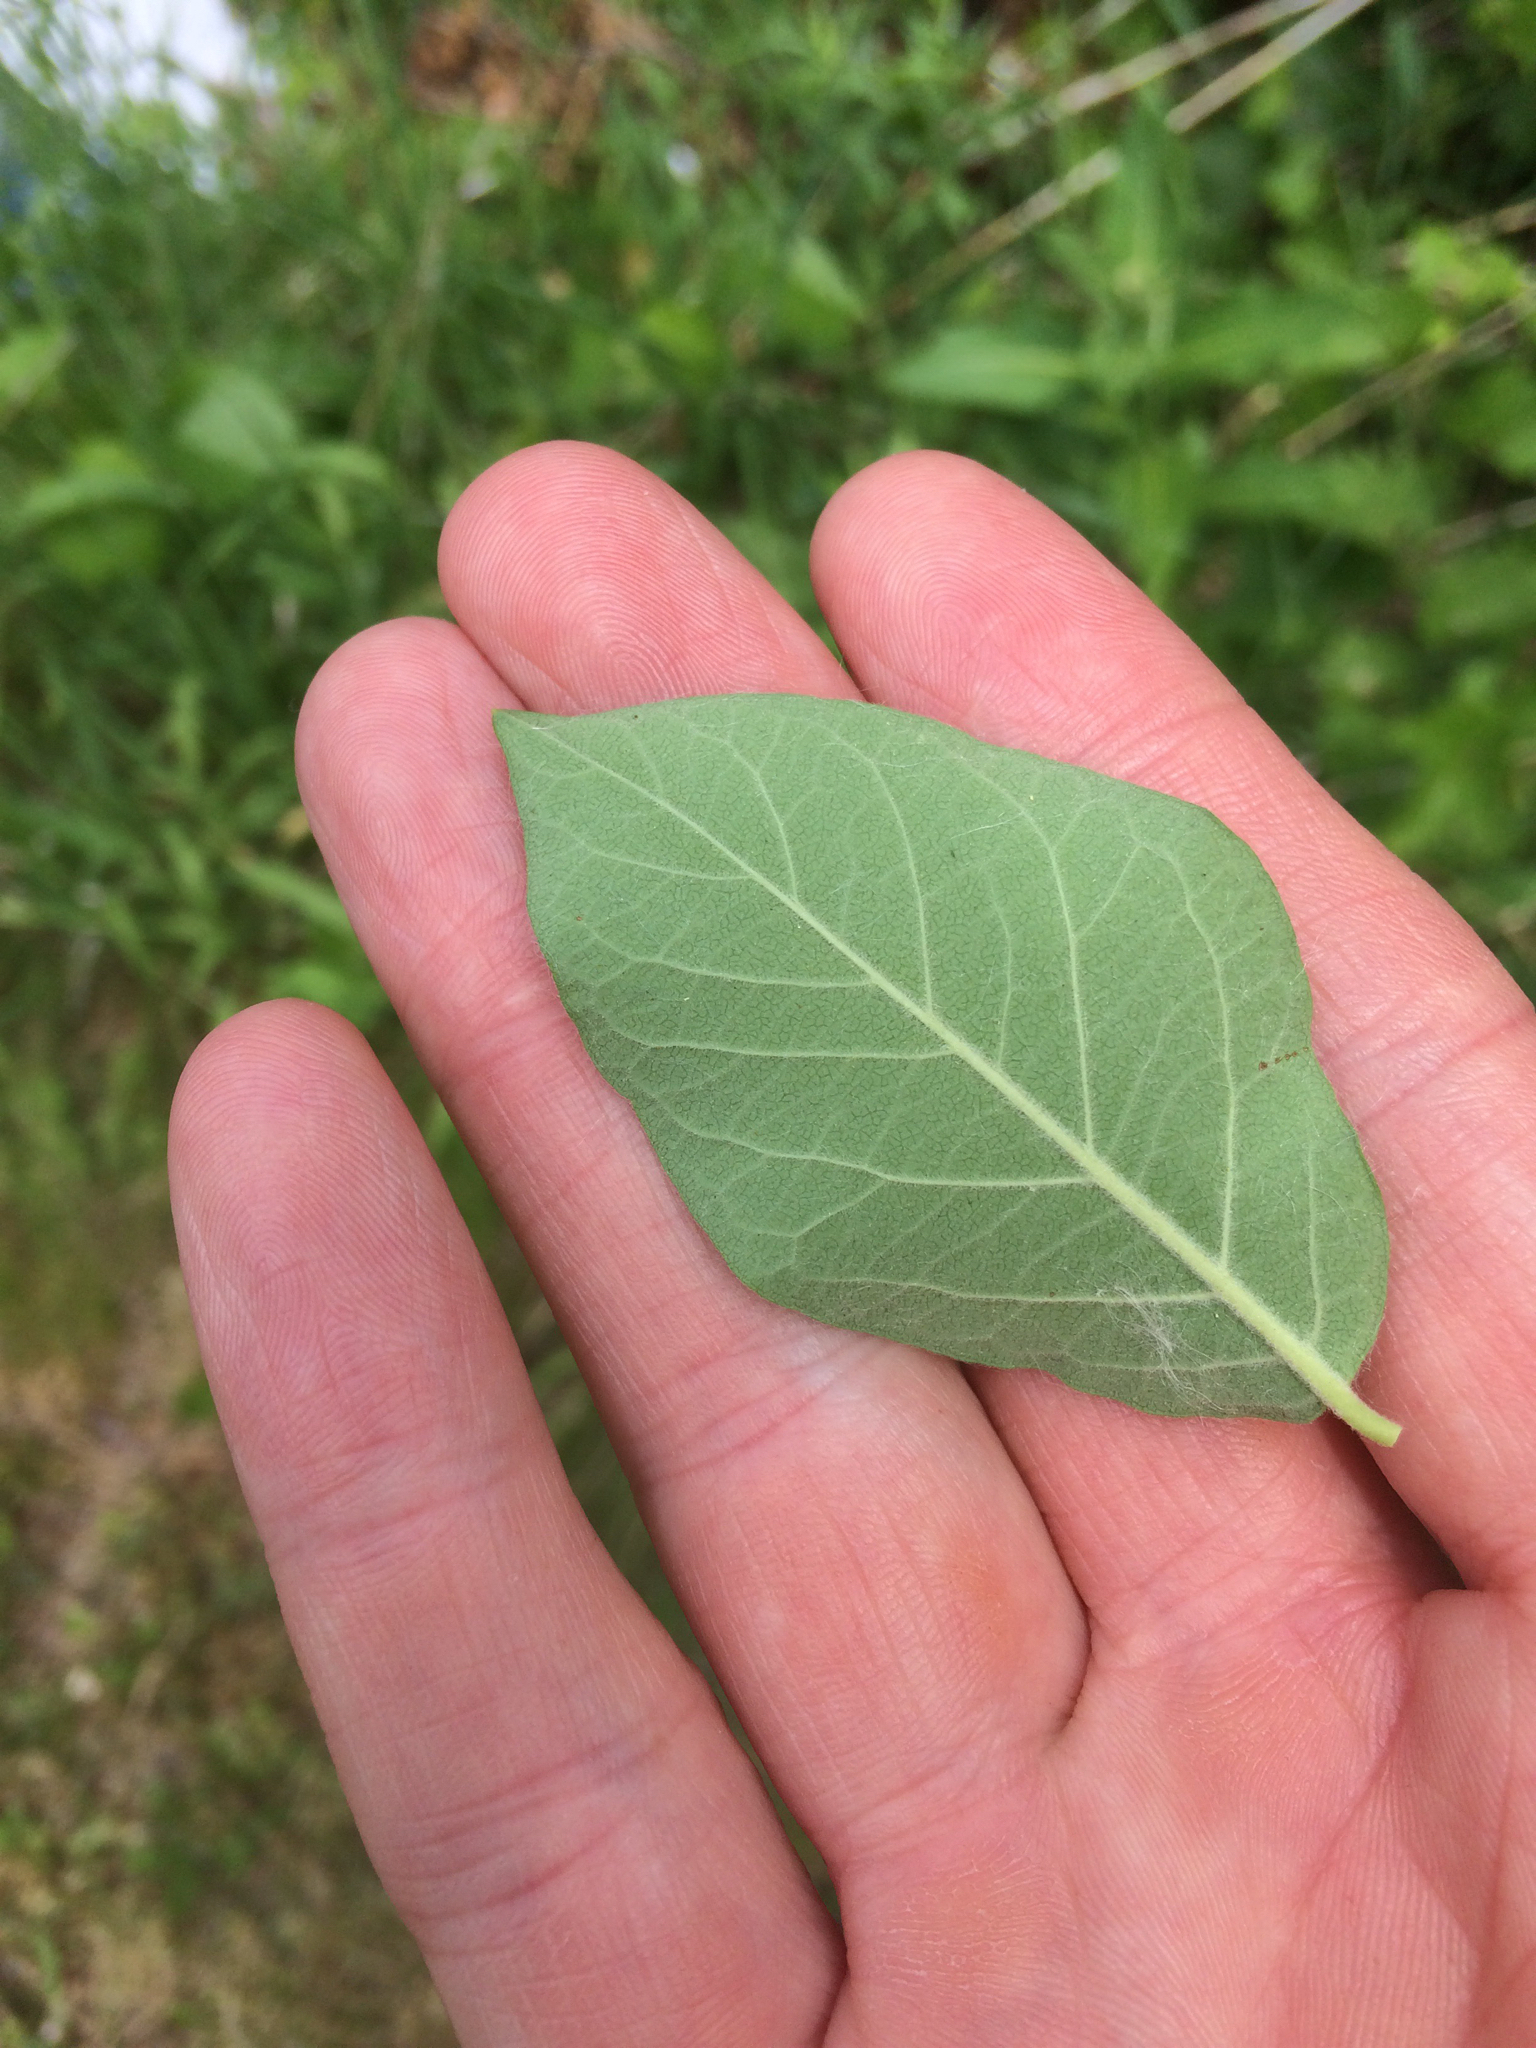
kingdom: Plantae
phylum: Tracheophyta
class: Magnoliopsida
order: Dipsacales
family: Caprifoliaceae
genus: Lonicera
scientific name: Lonicera morrowii
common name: Morrow's honeysuckle
